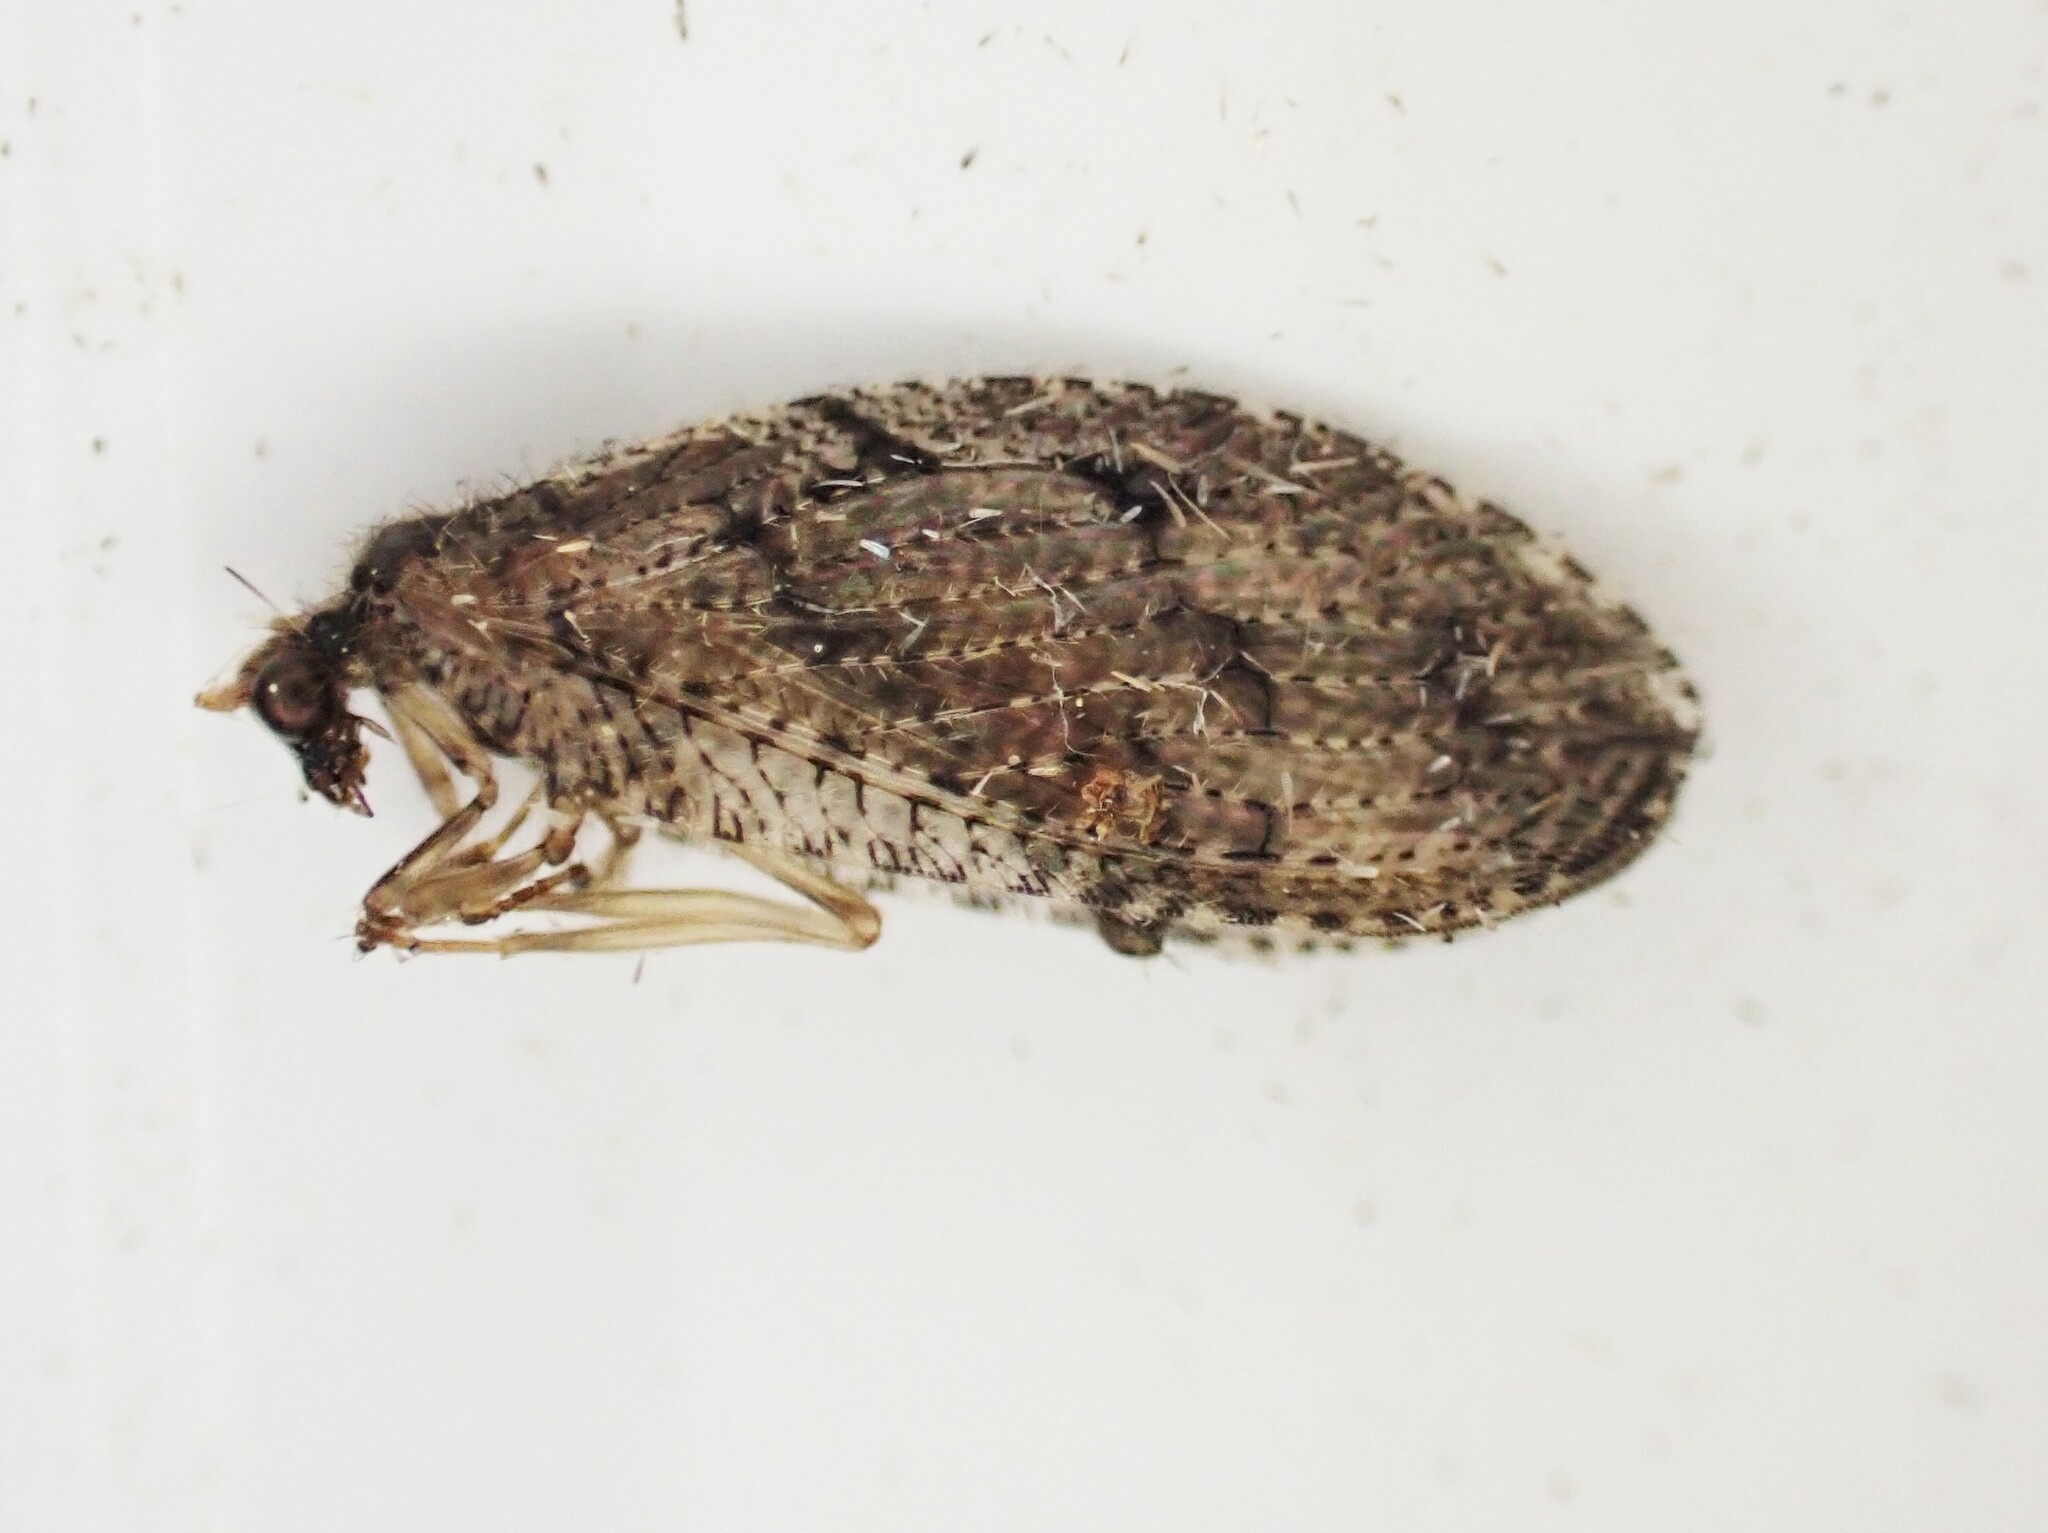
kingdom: Animalia
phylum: Arthropoda
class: Insecta
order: Neuroptera
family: Hemerobiidae
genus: Wesmaelius
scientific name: Wesmaelius subnebulosus
